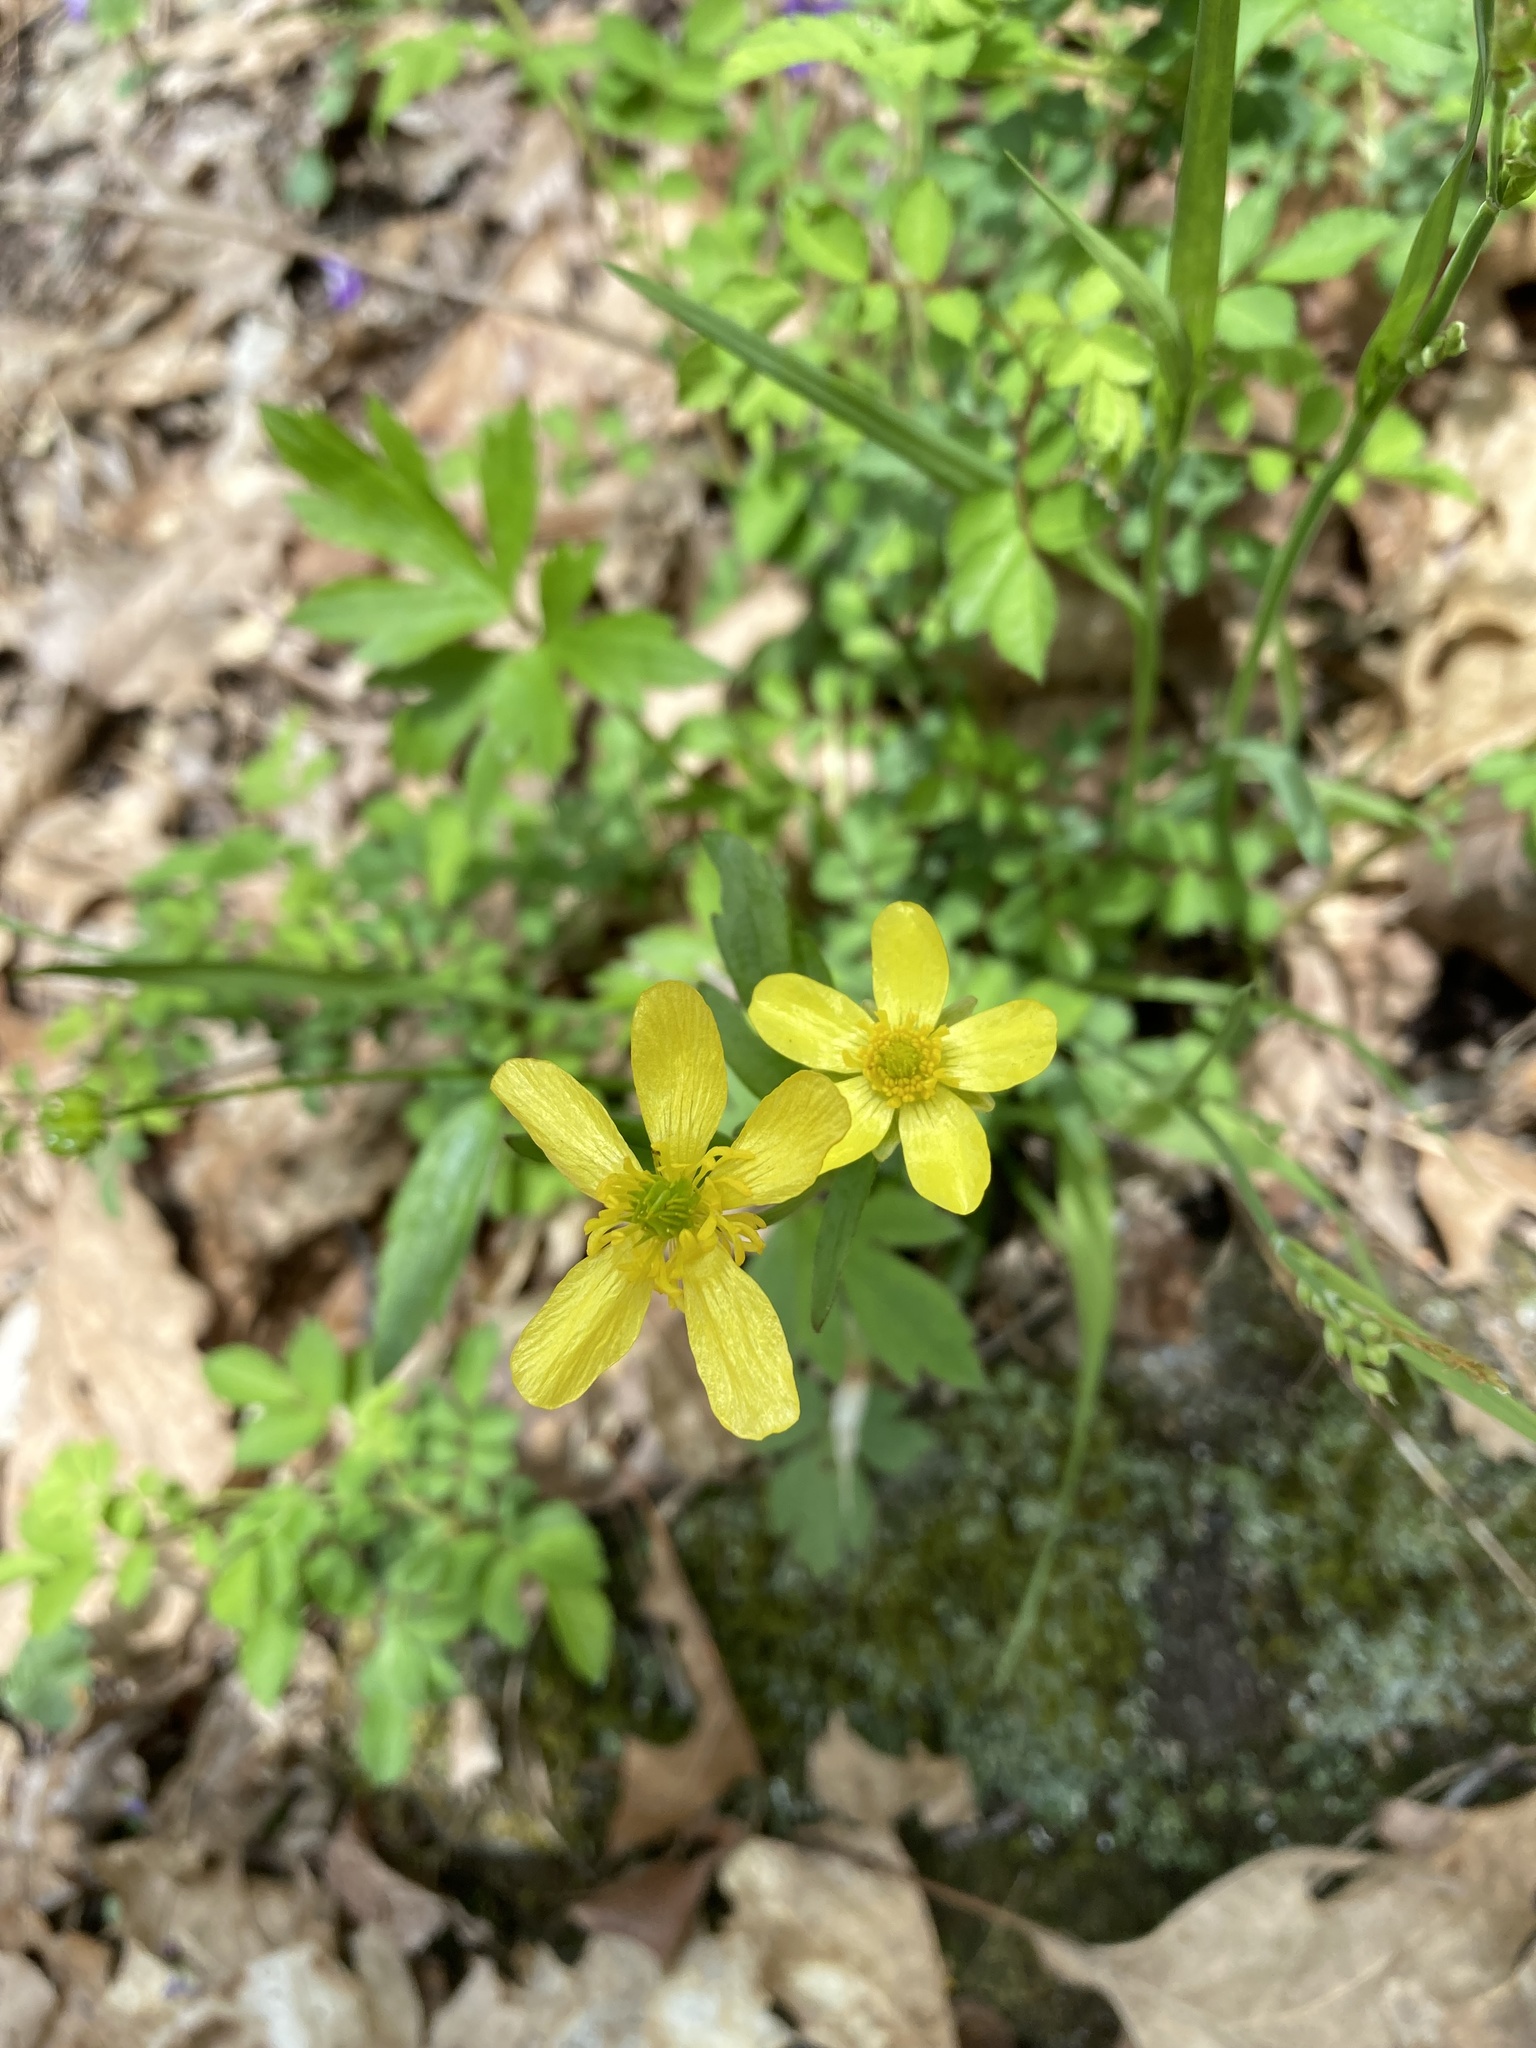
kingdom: Plantae
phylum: Tracheophyta
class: Magnoliopsida
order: Ranunculales
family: Ranunculaceae
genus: Ranunculus
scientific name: Ranunculus hispidus
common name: Bristly buttercup
